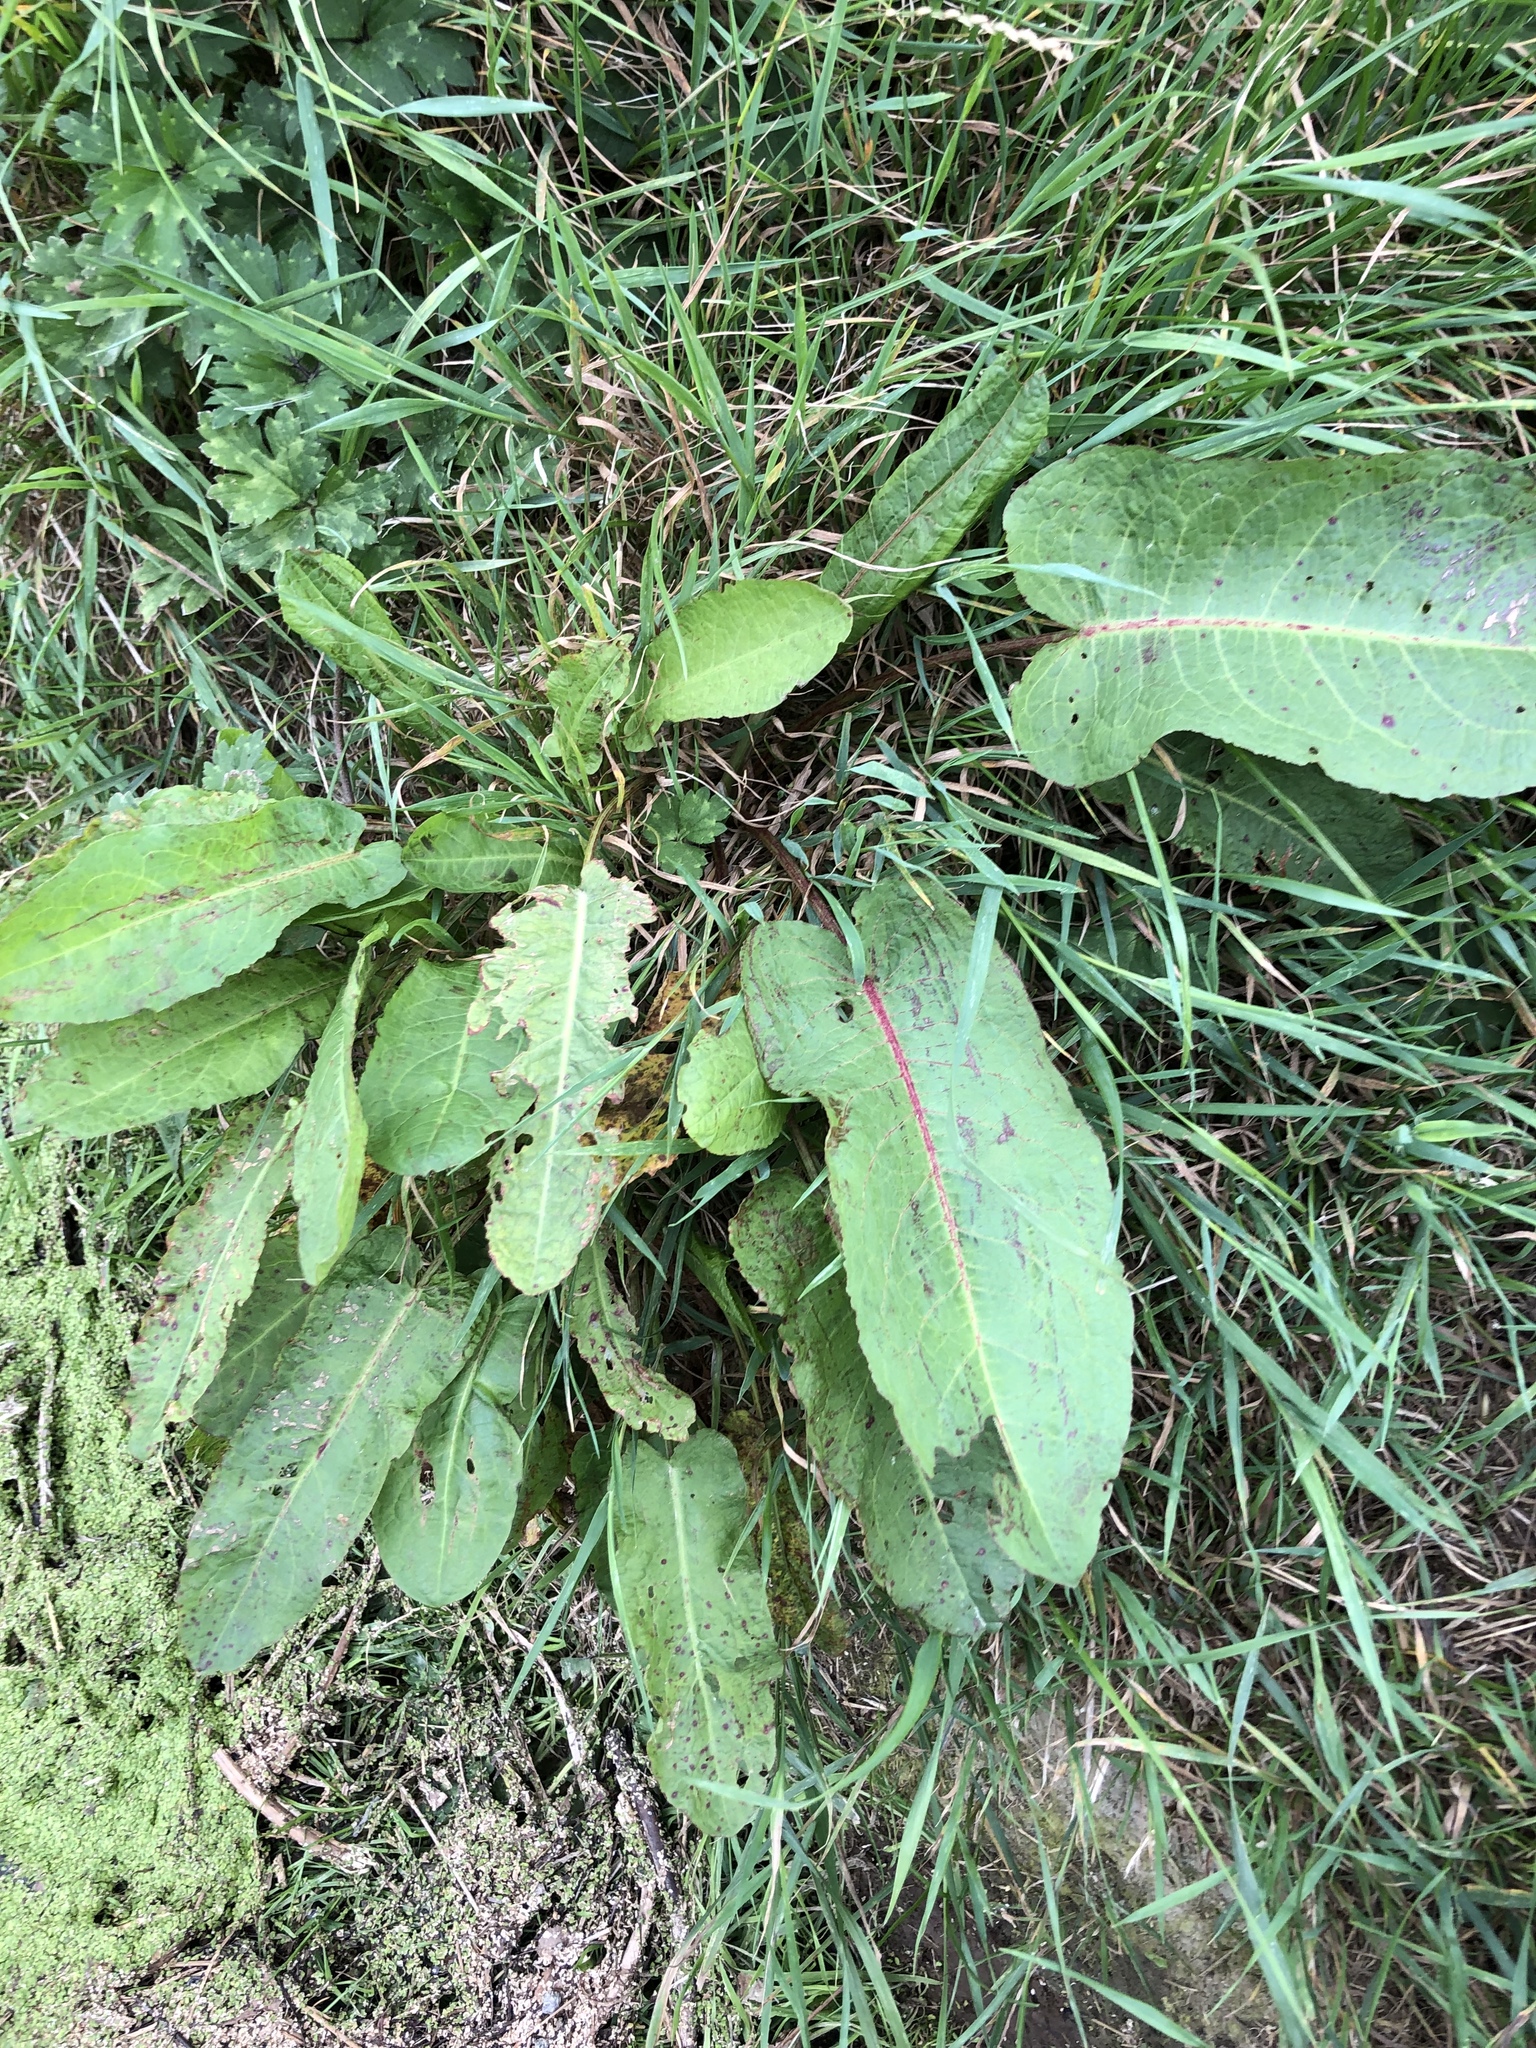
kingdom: Plantae
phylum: Tracheophyta
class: Magnoliopsida
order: Caryophyllales
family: Polygonaceae
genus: Rumex
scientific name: Rumex obtusifolius
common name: Bitter dock
